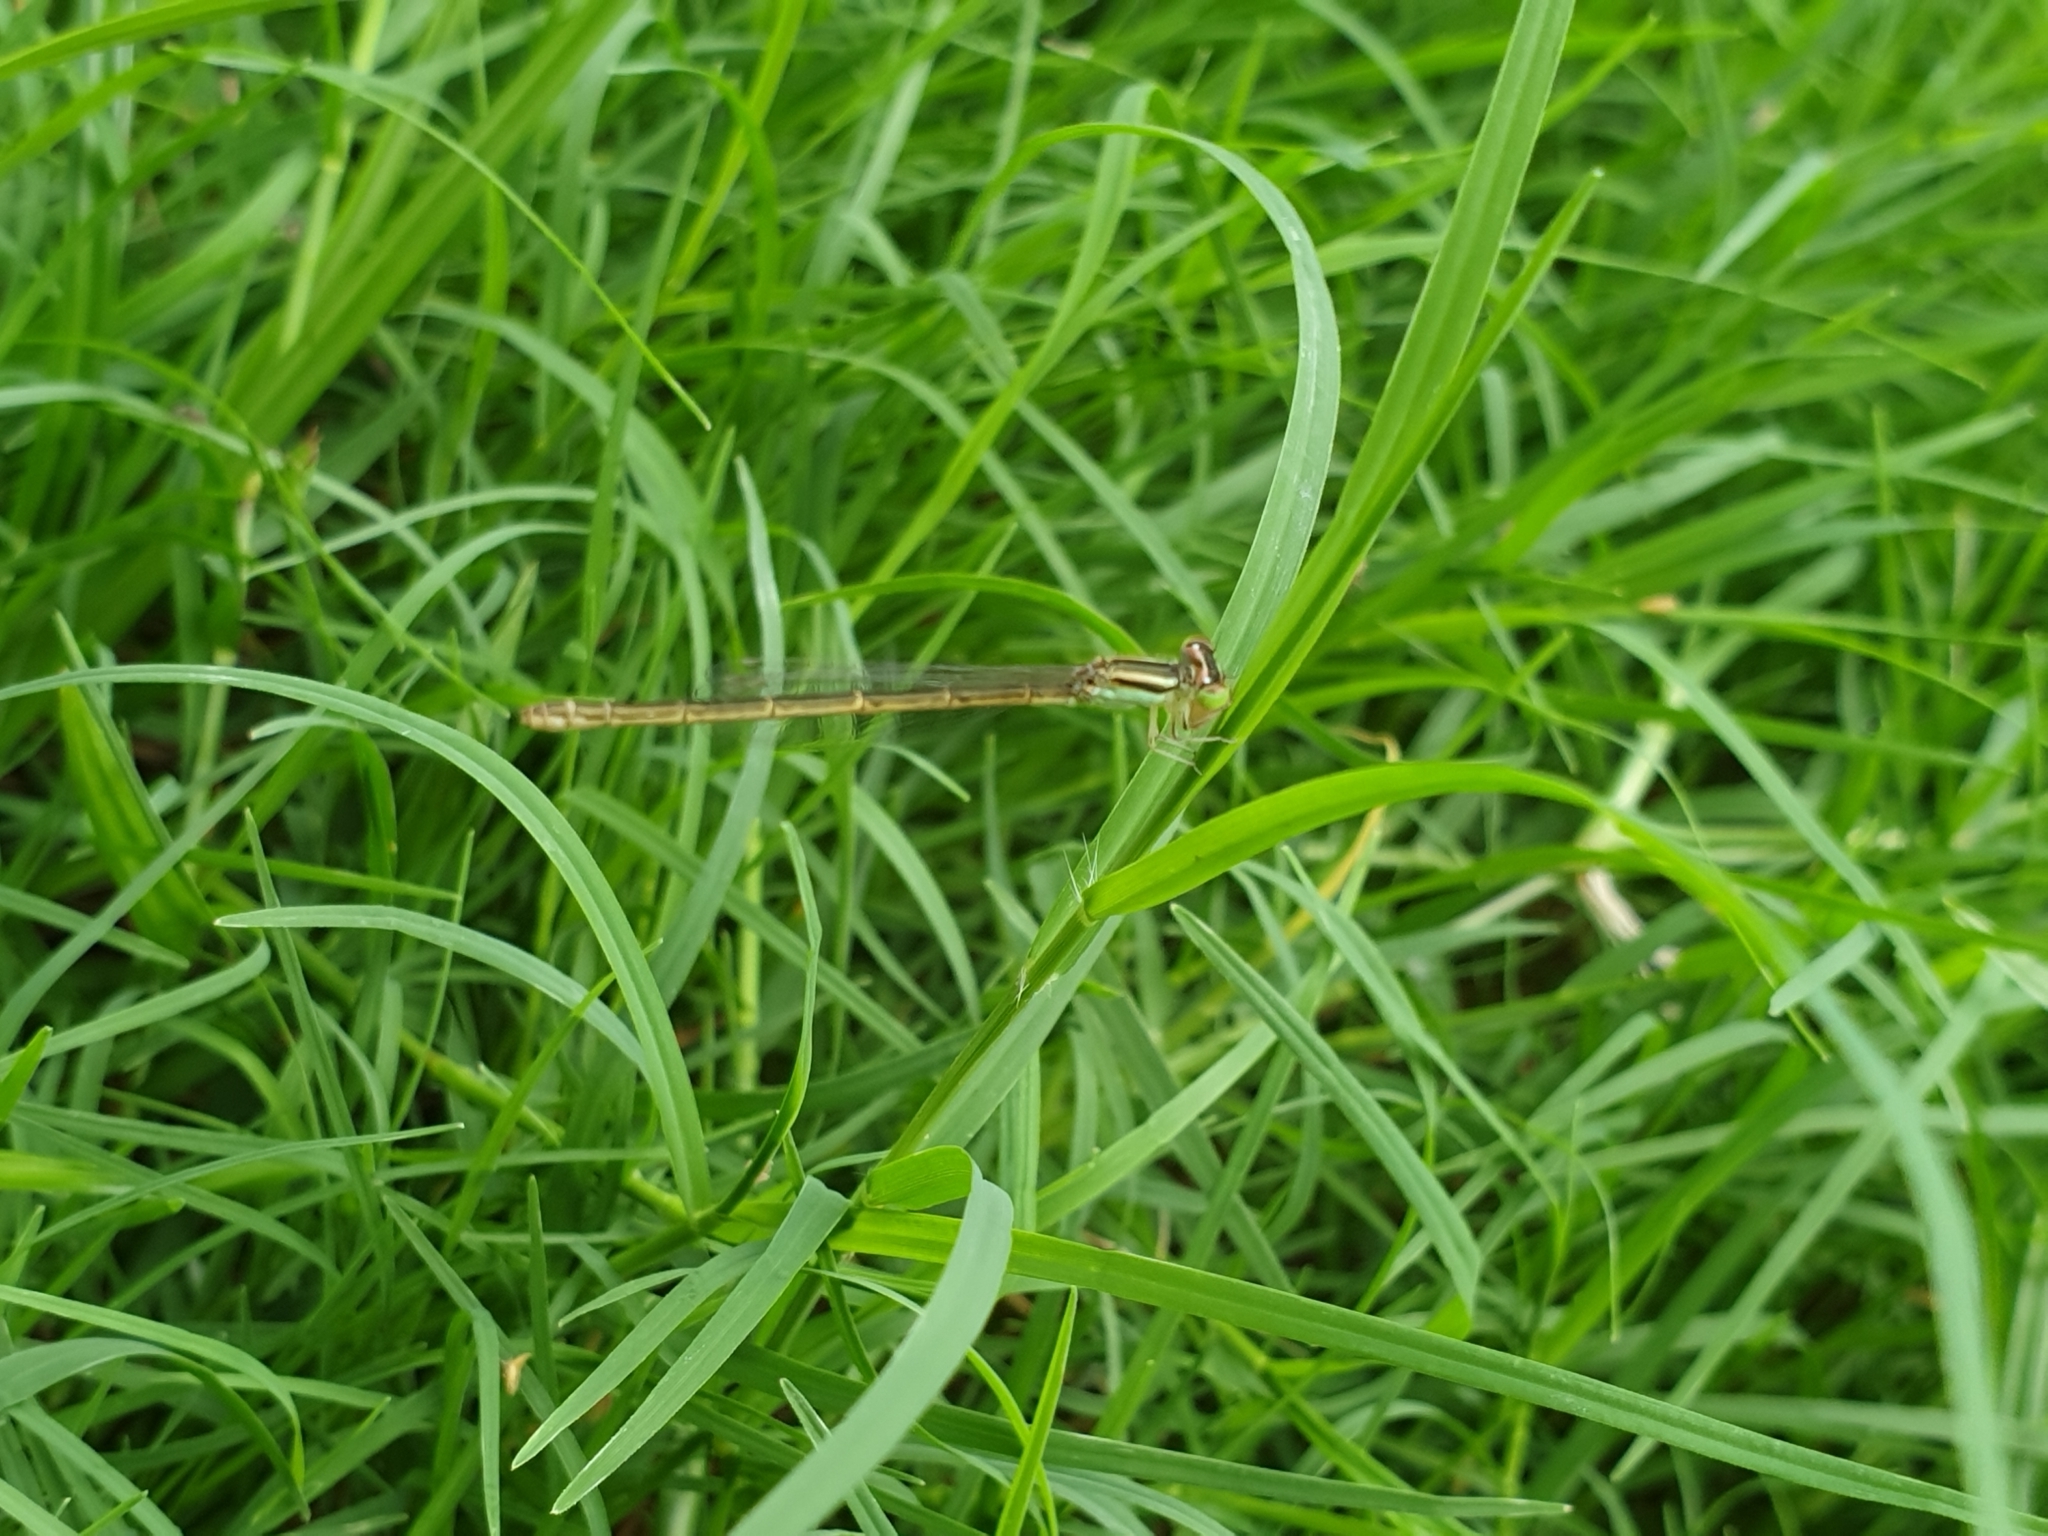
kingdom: Animalia
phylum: Arthropoda
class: Insecta
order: Odonata
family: Coenagrionidae
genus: Ischnura
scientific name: Ischnura rubilio
